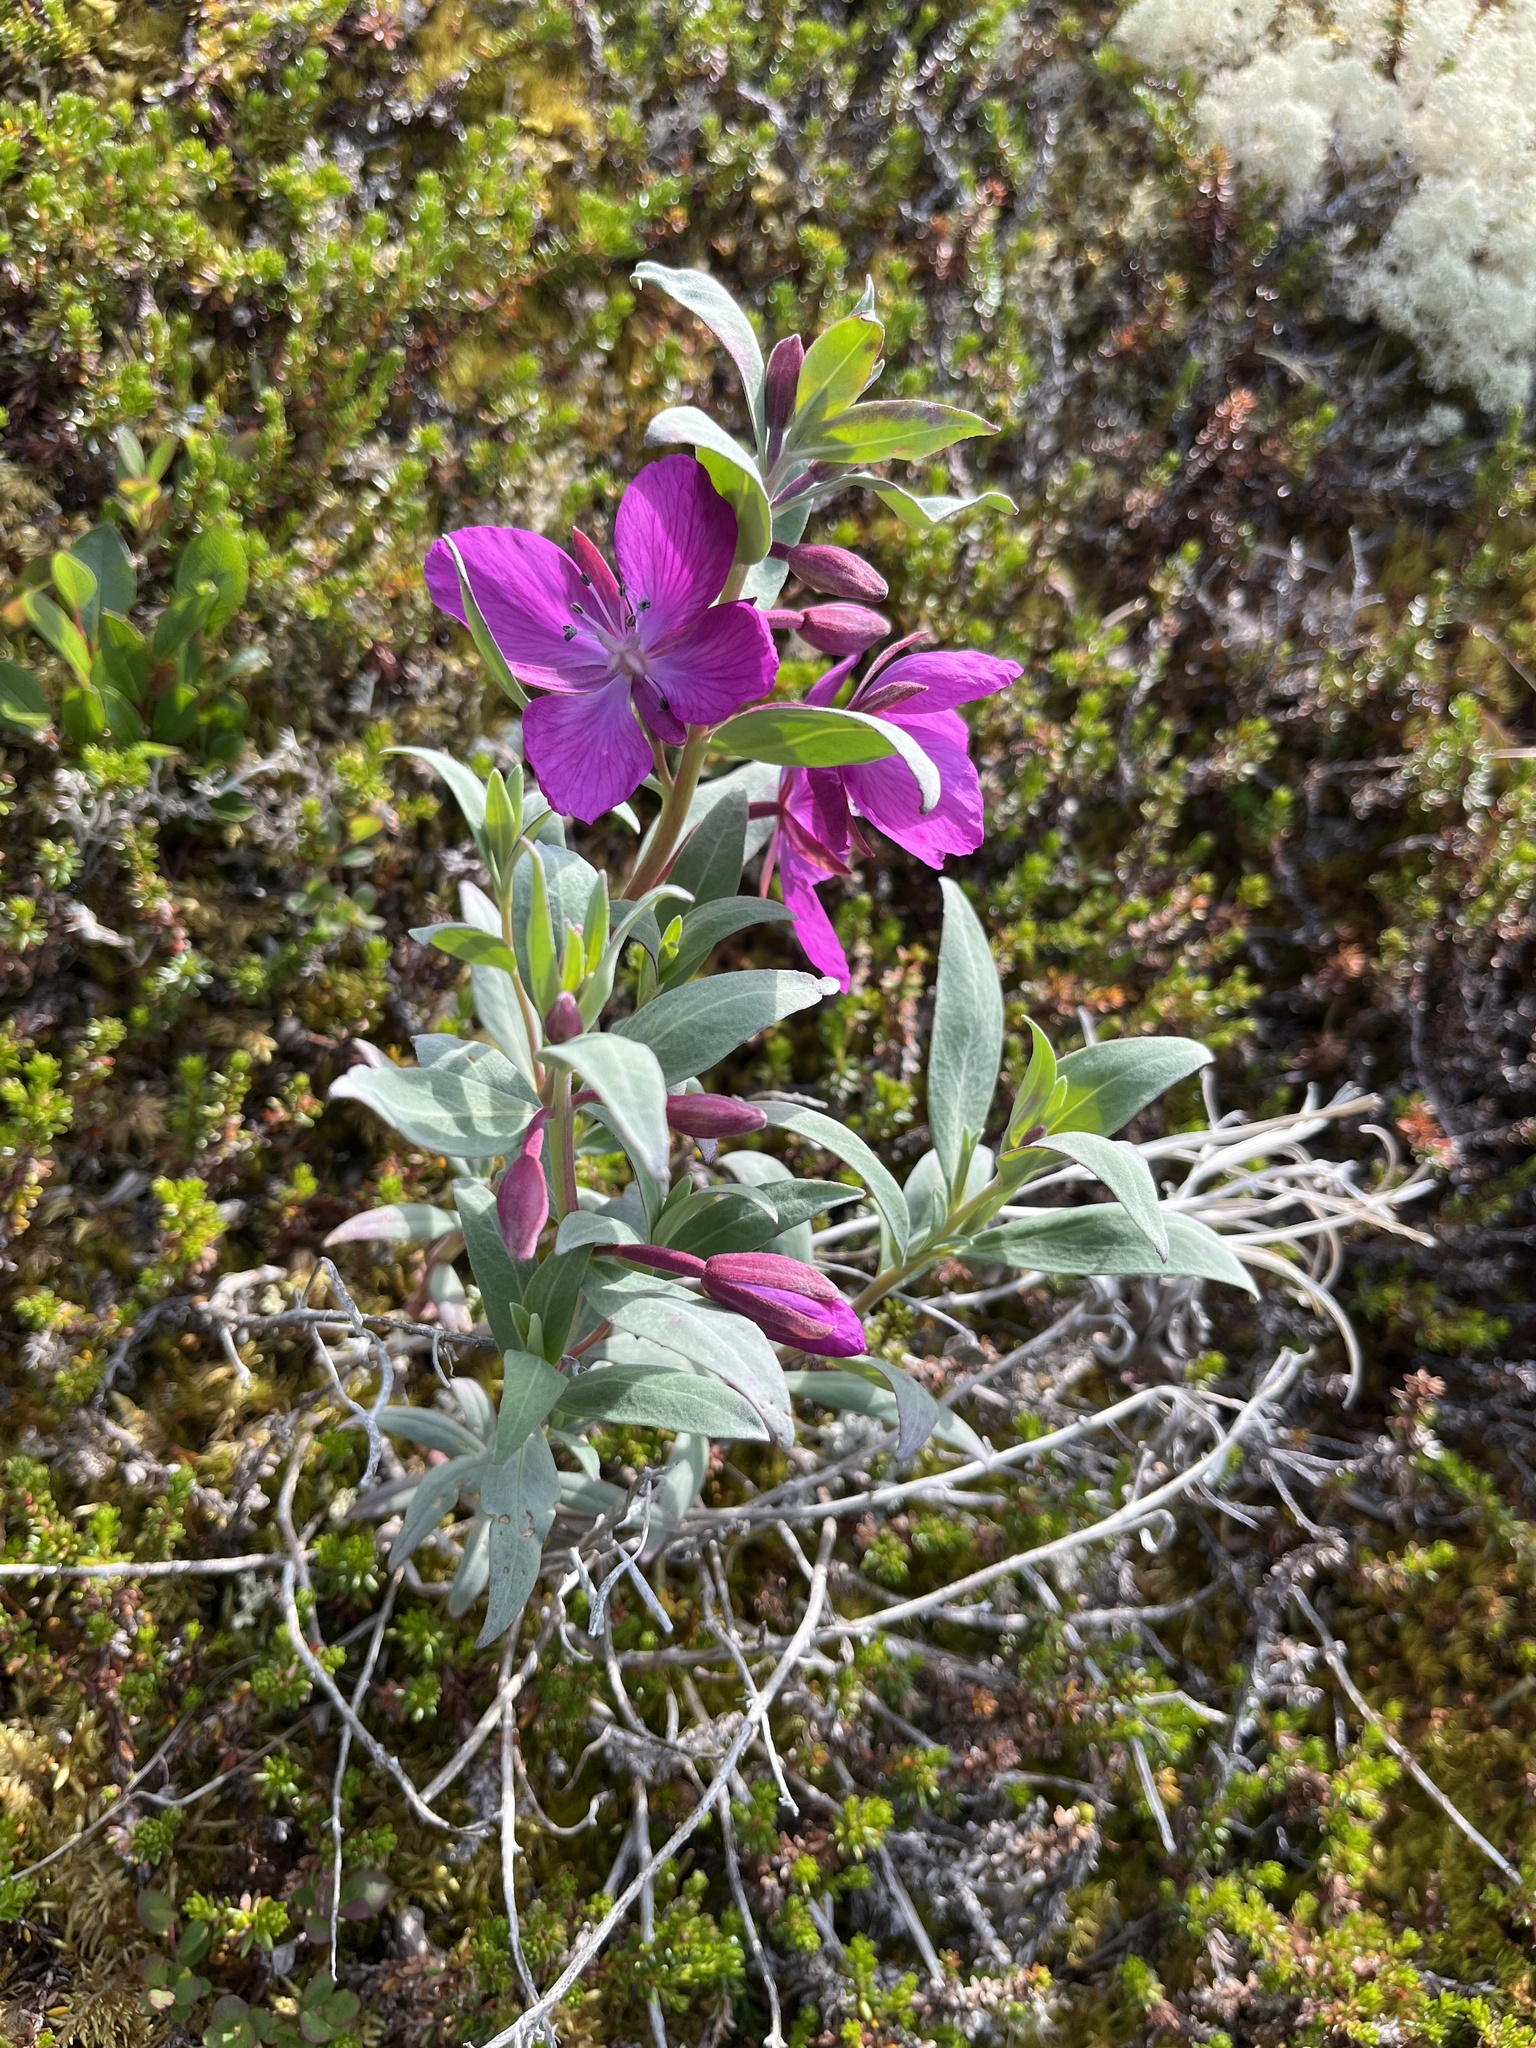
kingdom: Plantae
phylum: Tracheophyta
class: Magnoliopsida
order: Myrtales
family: Onagraceae
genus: Chamaenerion
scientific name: Chamaenerion latifolium
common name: Dwarf fireweed
